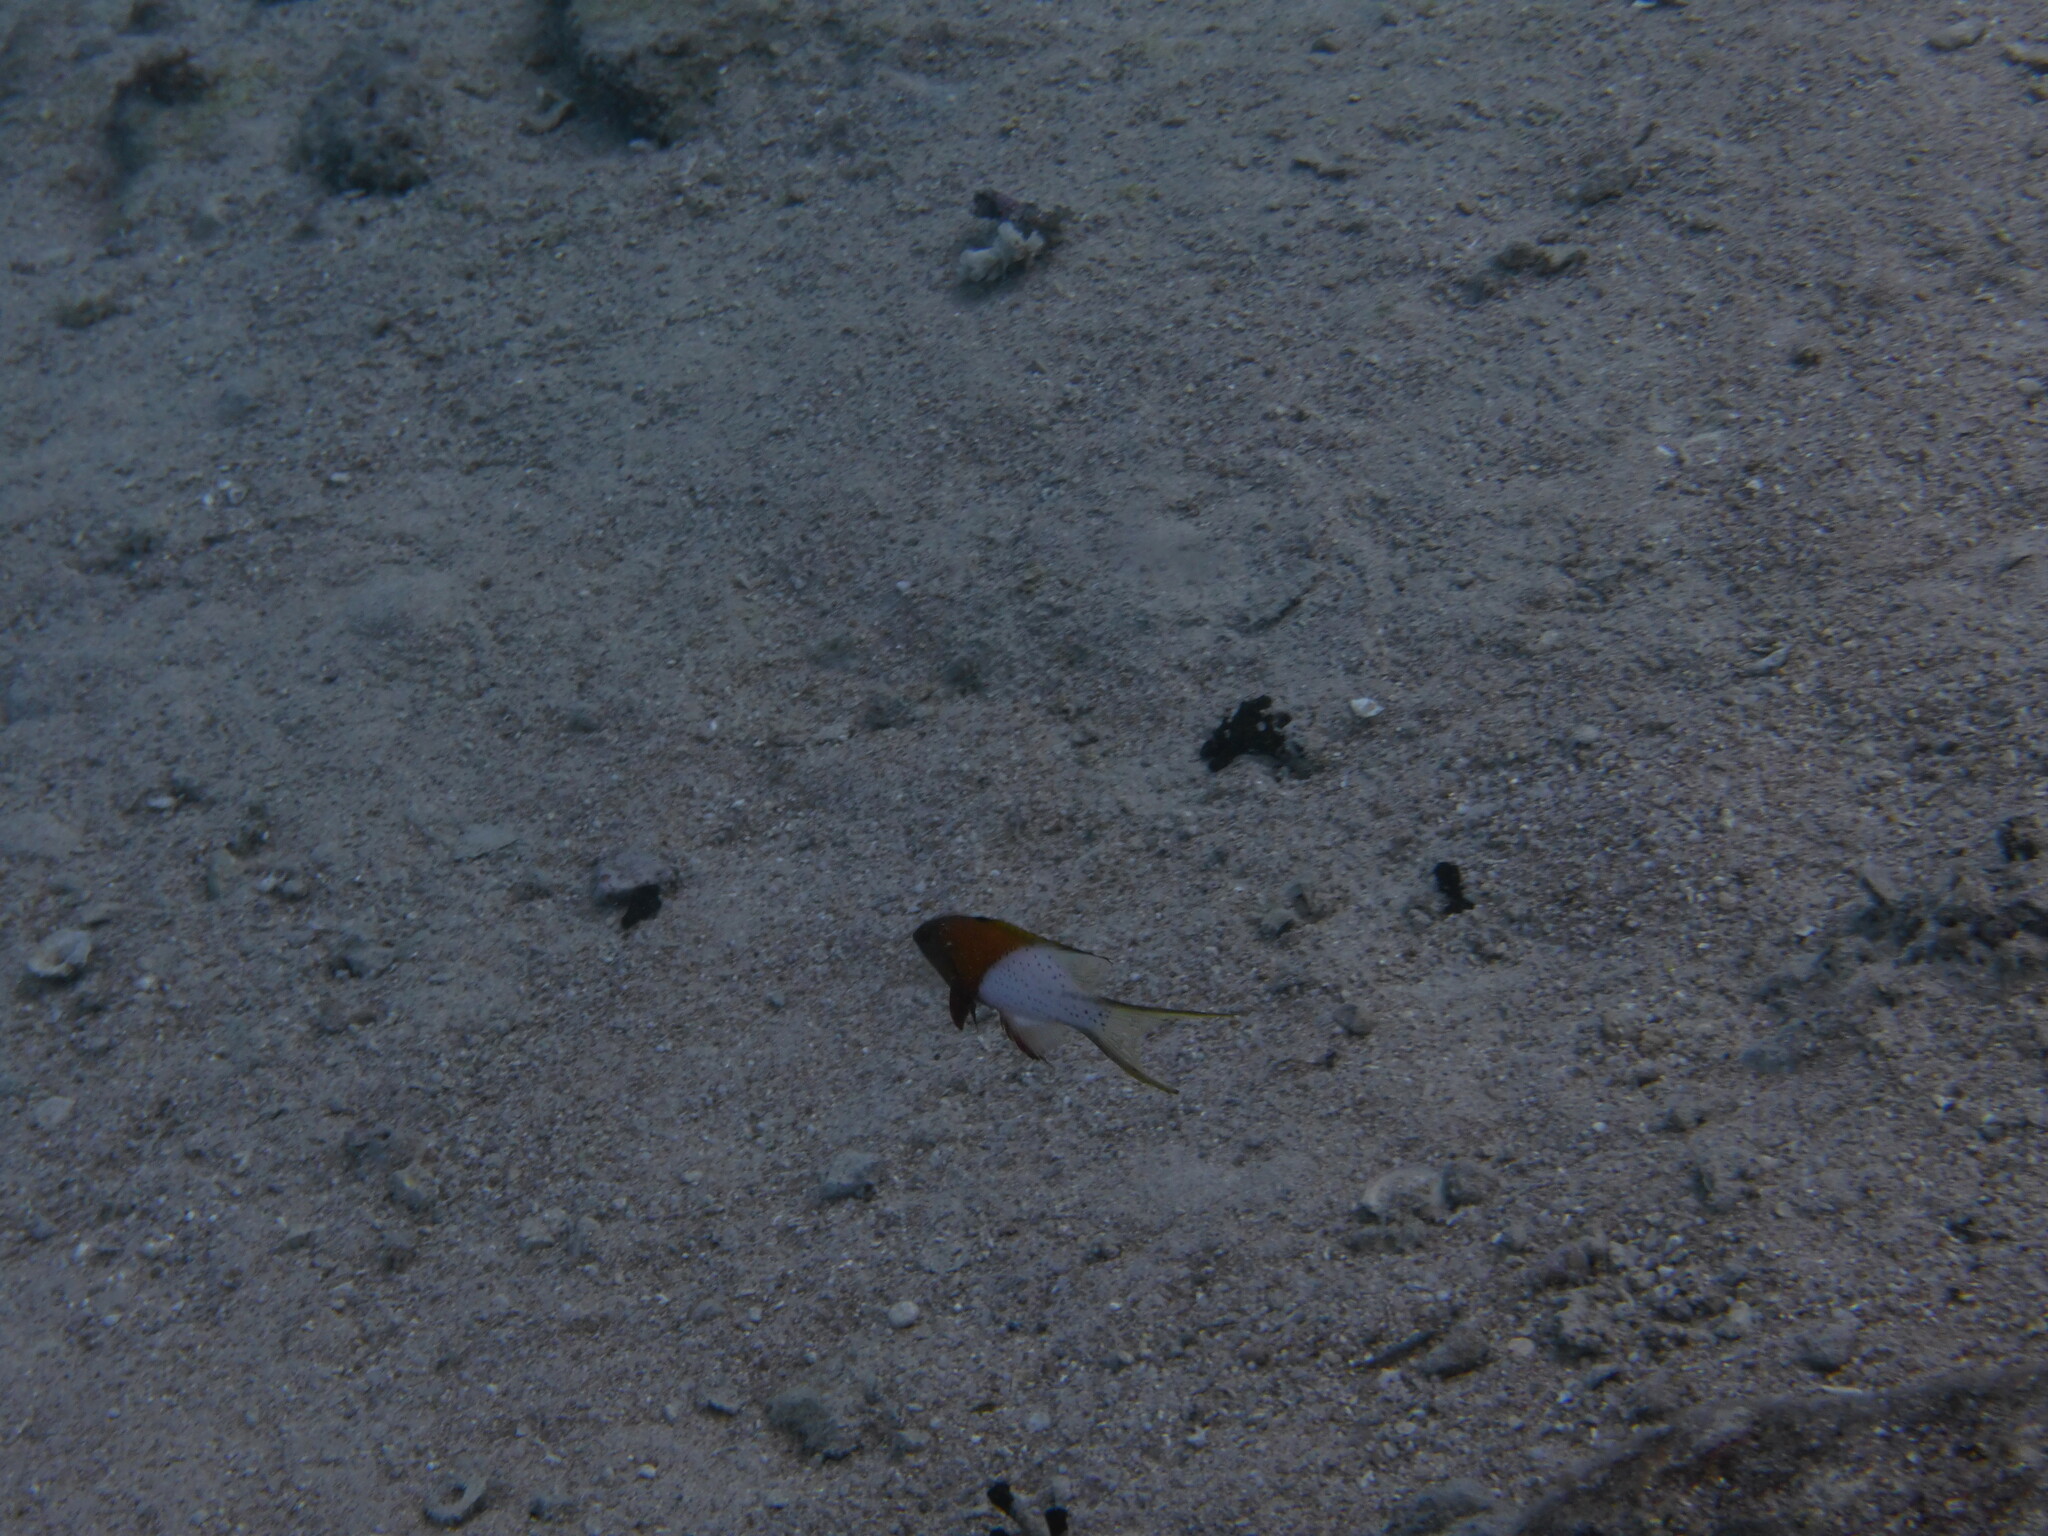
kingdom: Animalia
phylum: Chordata
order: Perciformes
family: Labridae
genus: Bodianus
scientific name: Bodianus anthioides
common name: Lyretail hogfish
